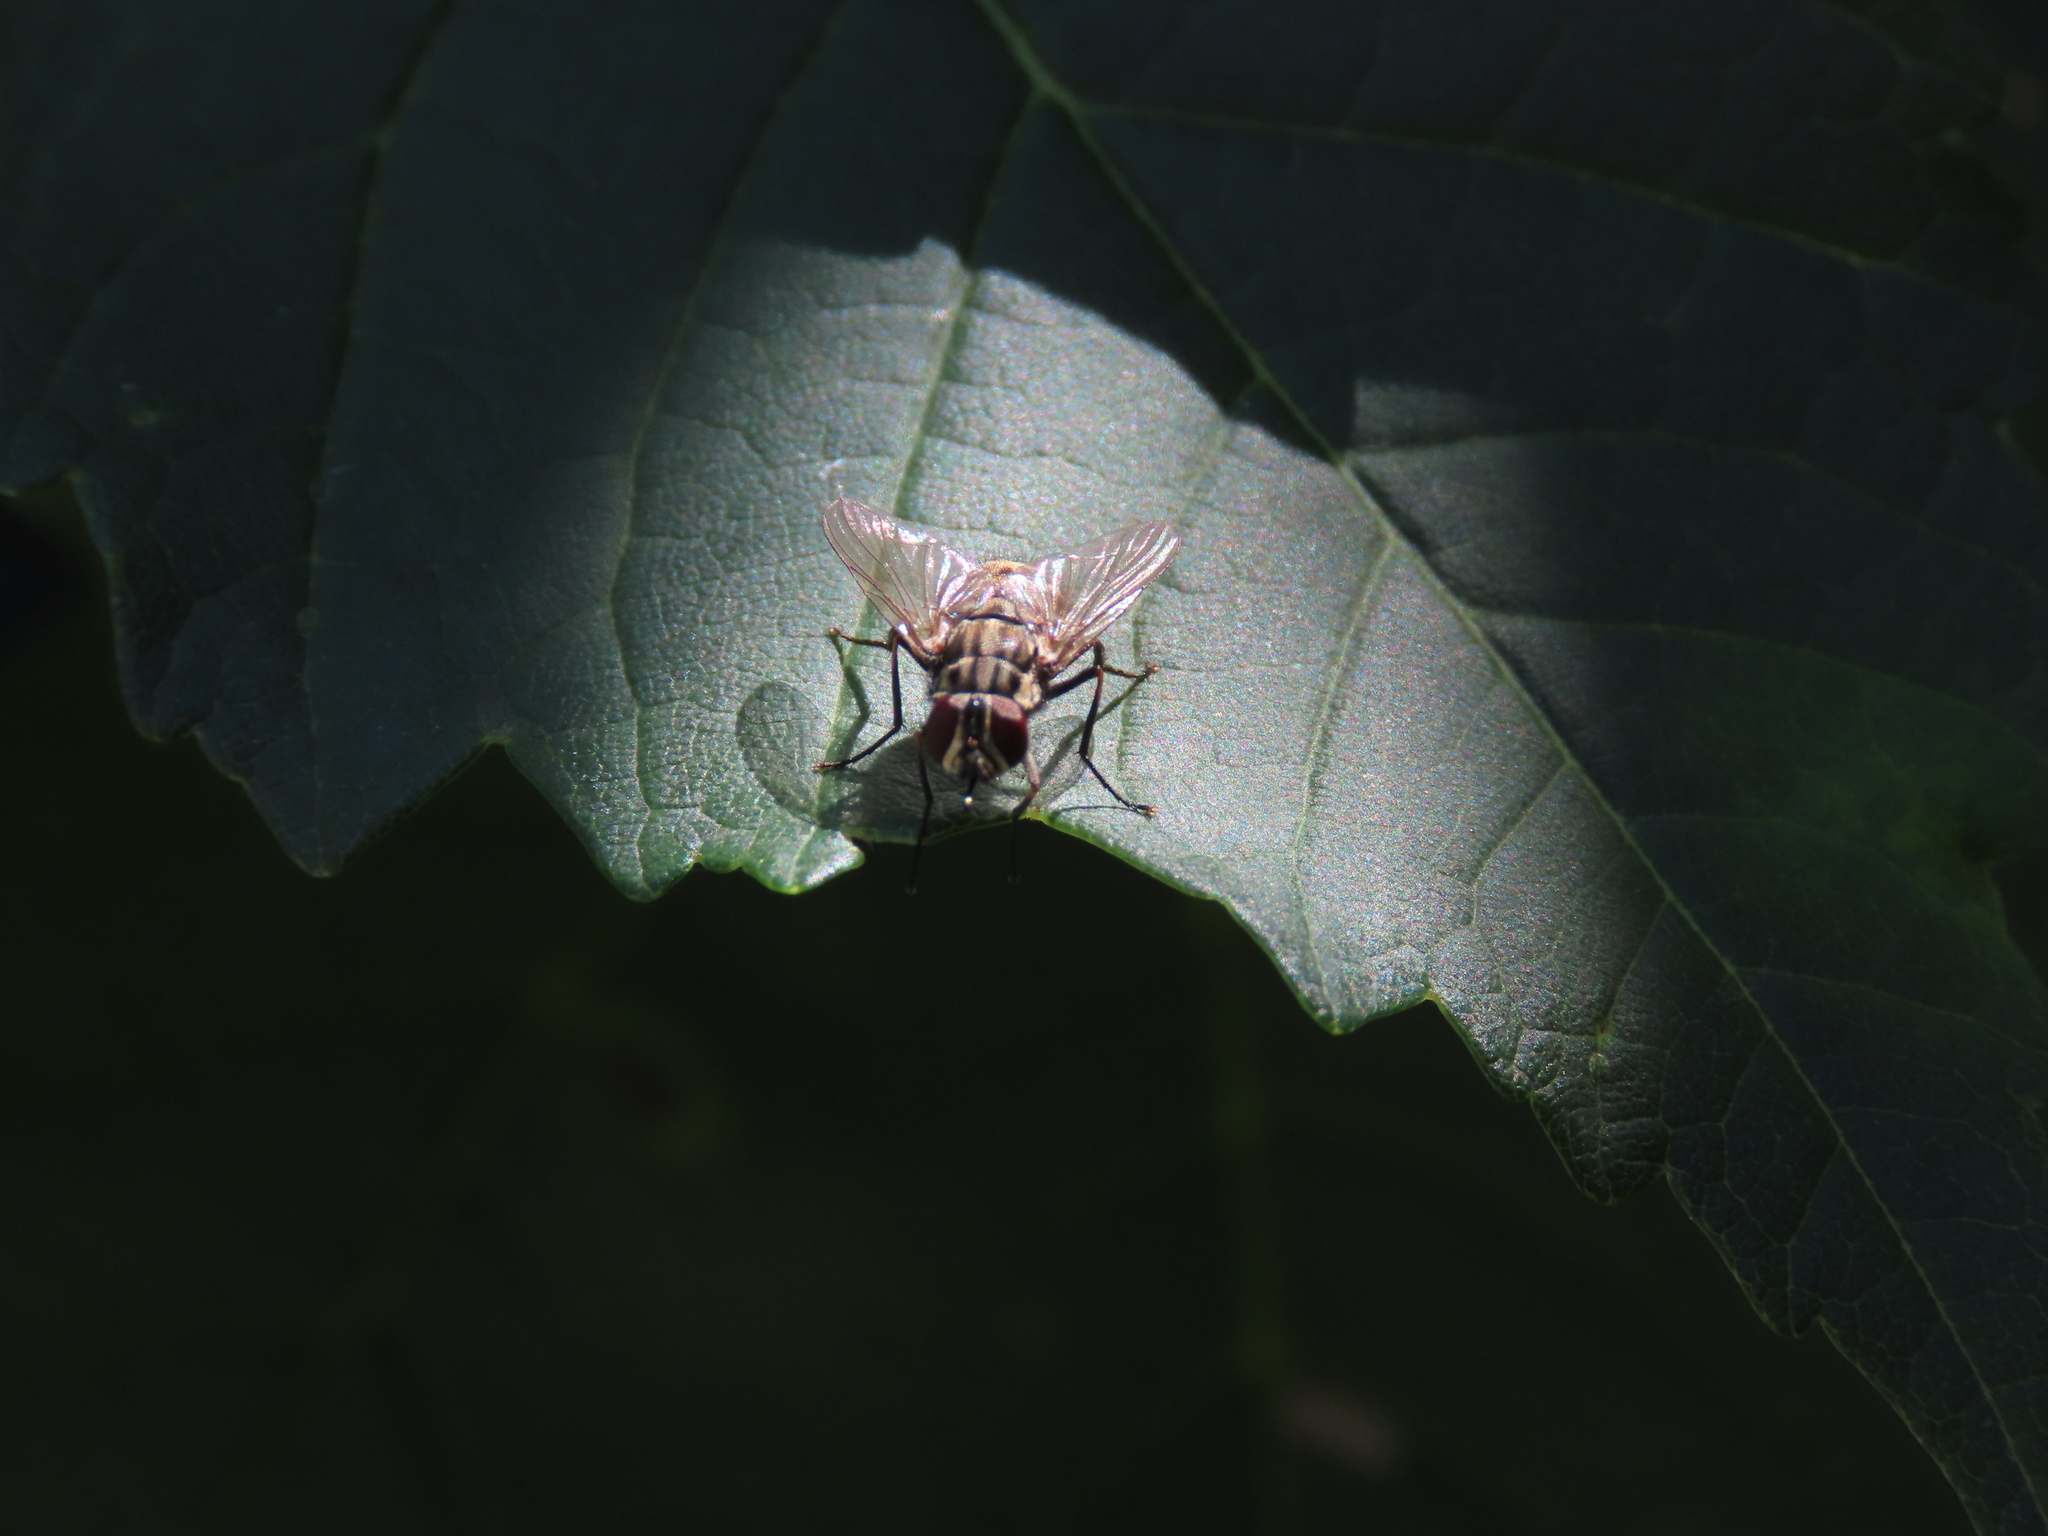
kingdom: Animalia
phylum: Arthropoda
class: Insecta
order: Diptera
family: Muscidae
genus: Stomoxys
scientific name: Stomoxys calcitrans
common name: Stable fly
